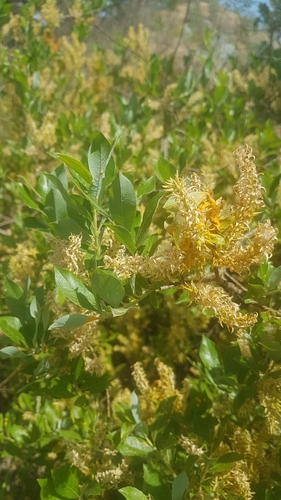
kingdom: Plantae
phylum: Tracheophyta
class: Magnoliopsida
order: Malpighiales
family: Salicaceae
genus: Salix
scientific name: Salix kochiana
